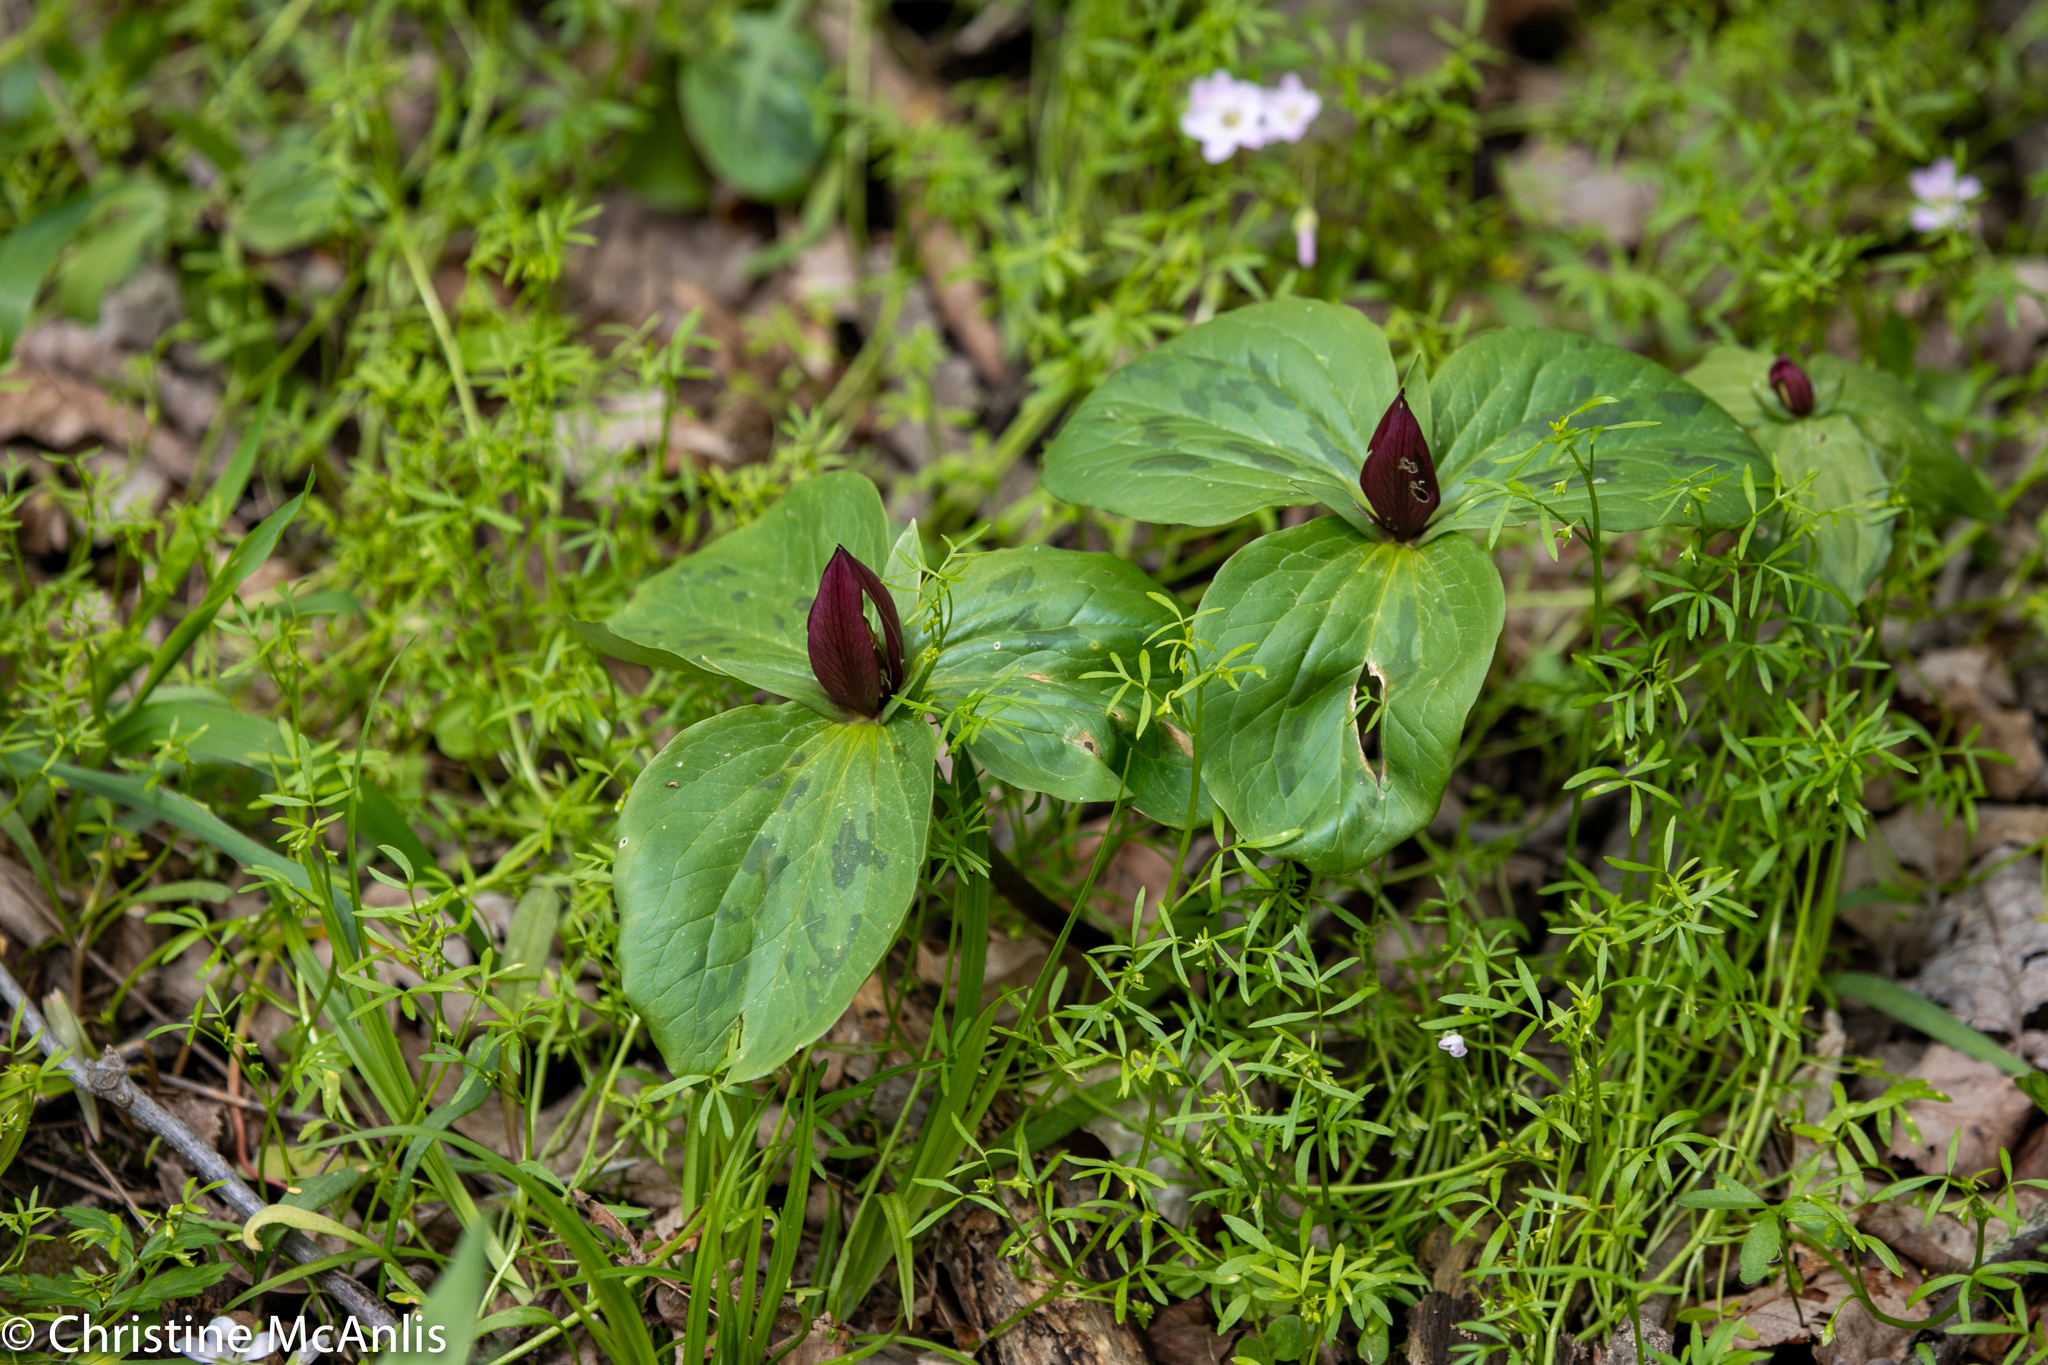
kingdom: Plantae
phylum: Tracheophyta
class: Liliopsida
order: Liliales
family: Melanthiaceae
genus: Trillium
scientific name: Trillium sessile
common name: Sessile trillium
